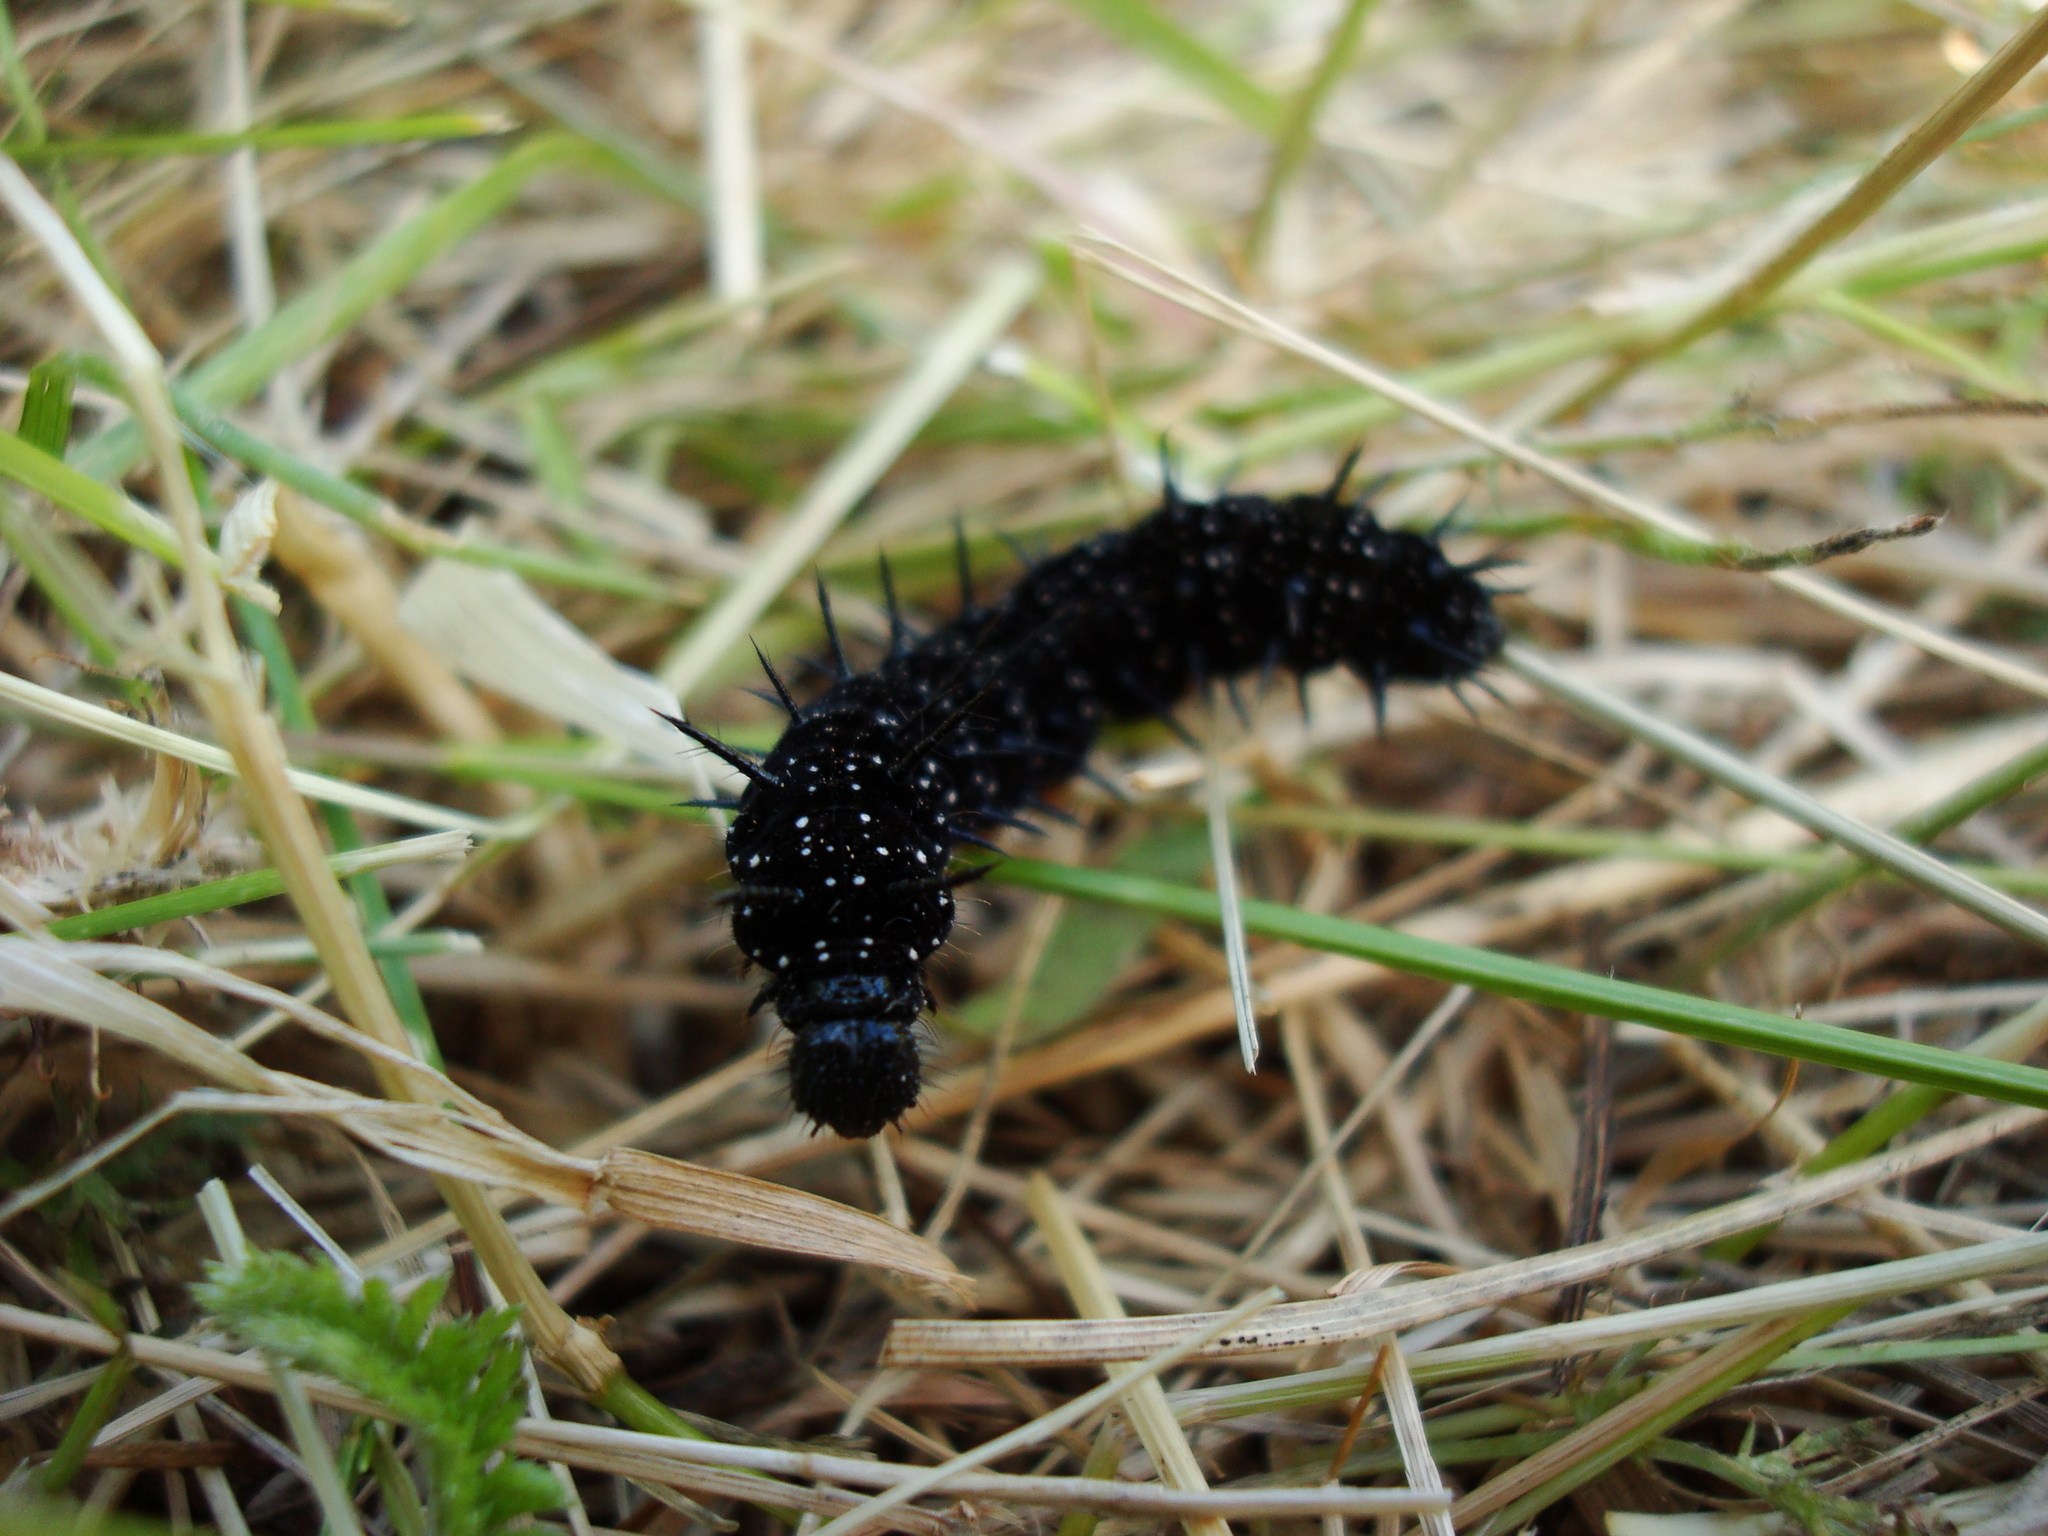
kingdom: Animalia
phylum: Arthropoda
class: Insecta
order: Lepidoptera
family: Nymphalidae
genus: Aglais
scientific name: Aglais io
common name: Peacock
